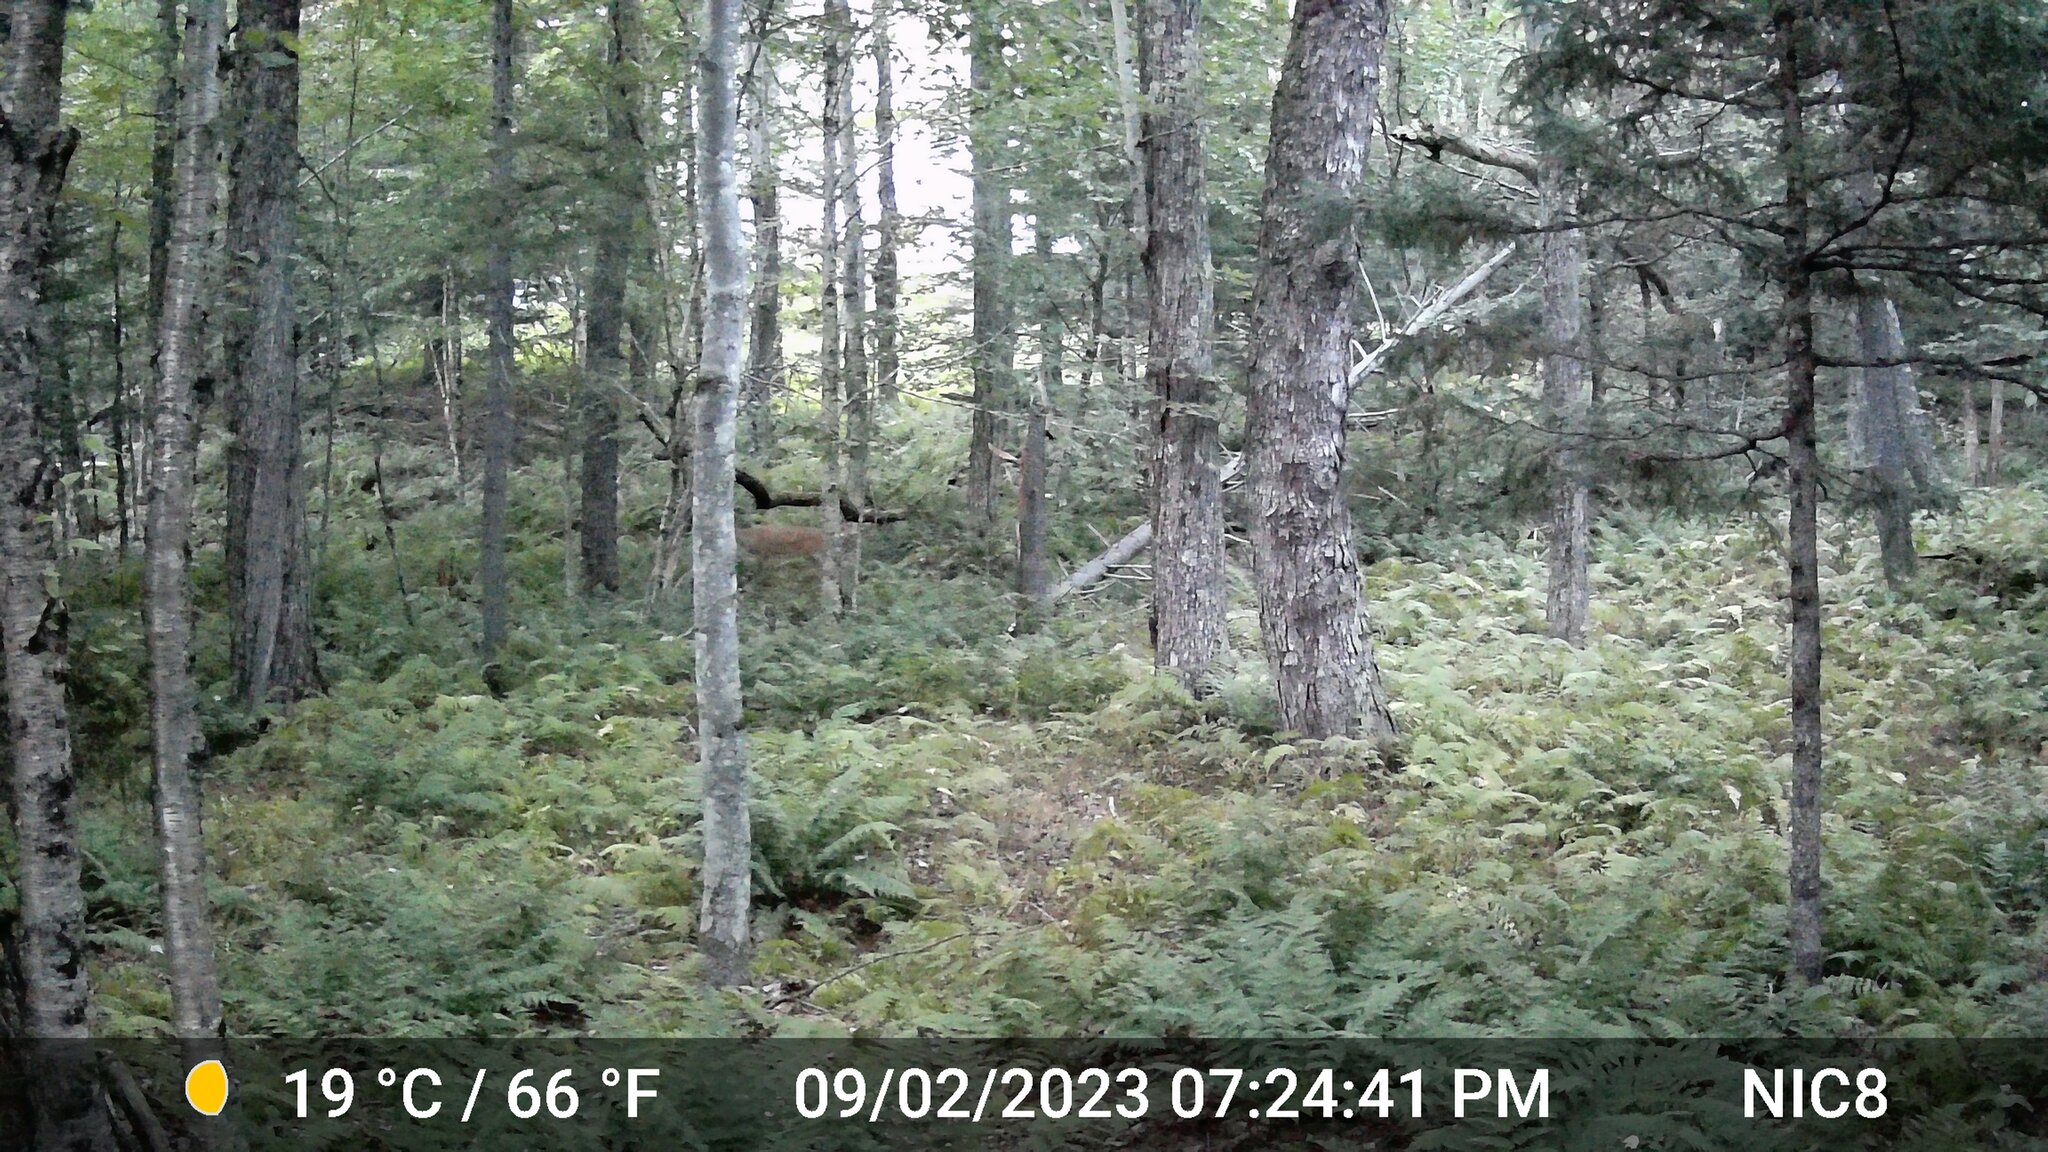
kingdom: Animalia
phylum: Chordata
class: Mammalia
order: Artiodactyla
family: Cervidae
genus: Odocoileus
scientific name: Odocoileus virginianus
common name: White-tailed deer
